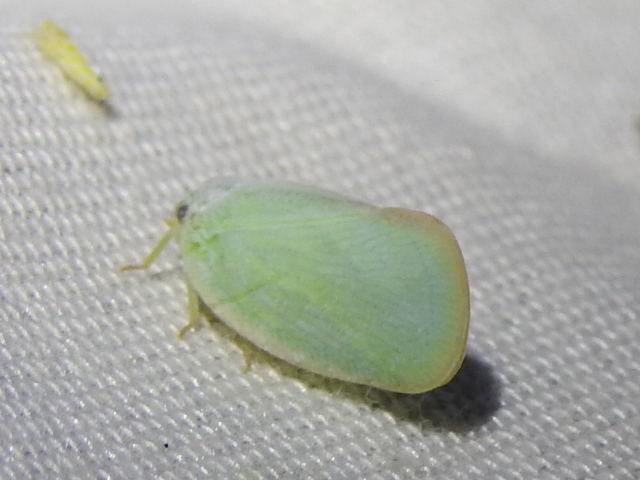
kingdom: Animalia
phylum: Arthropoda
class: Insecta
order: Hemiptera
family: Flatidae
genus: Ormenoides
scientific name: Ormenoides venusta
